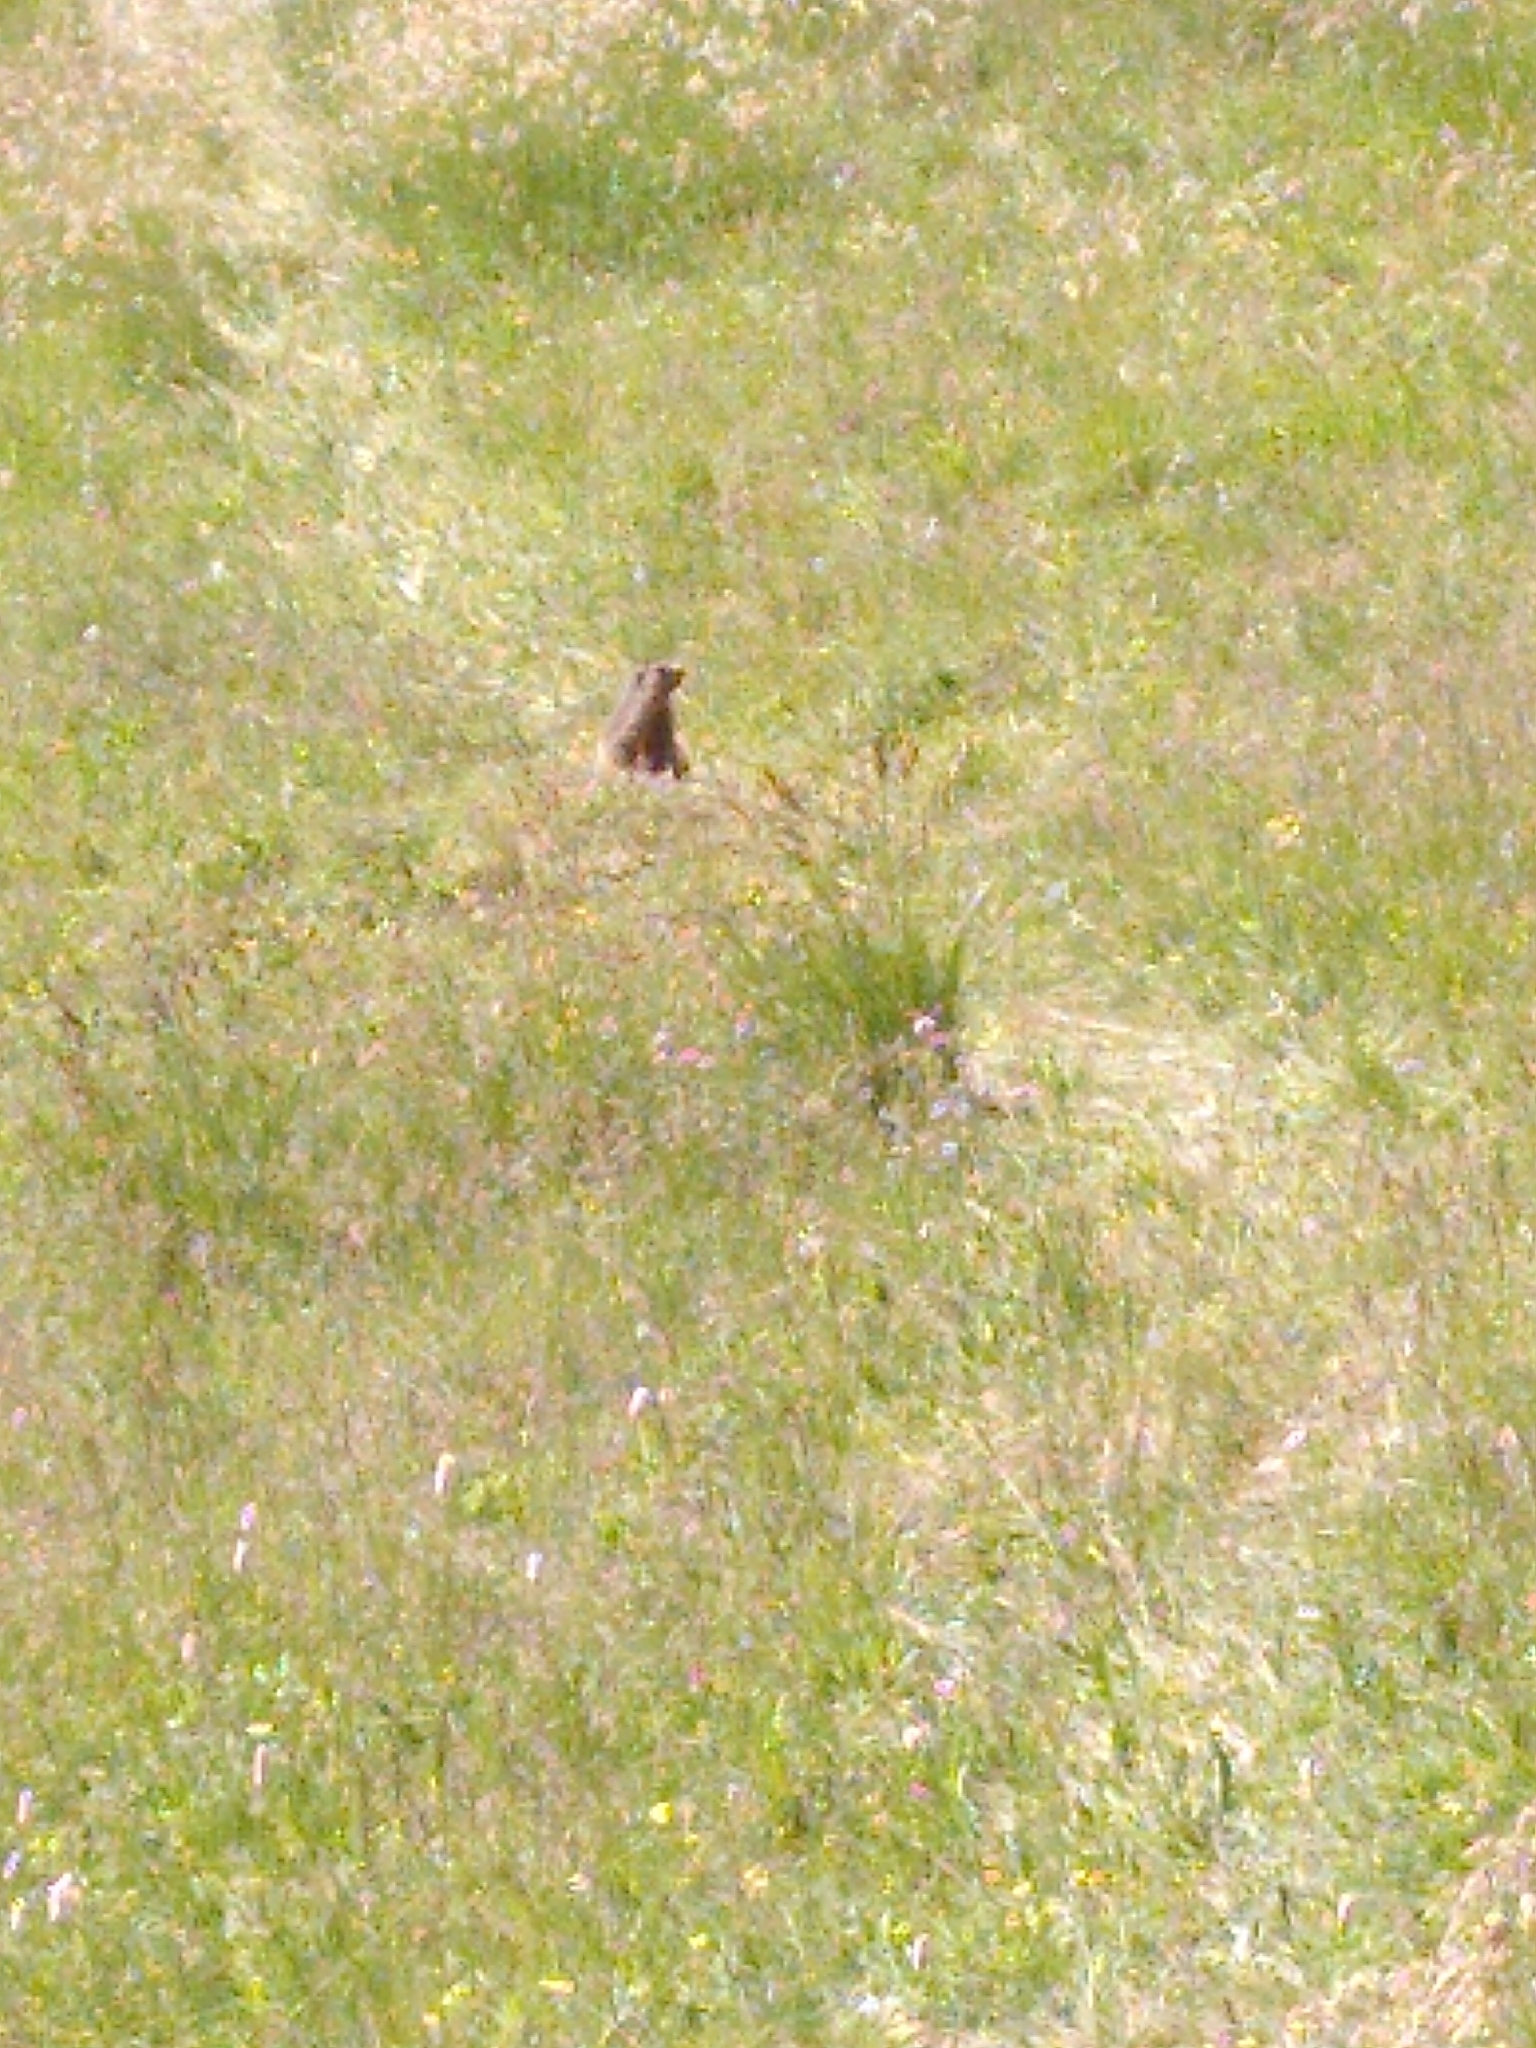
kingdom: Animalia
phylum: Chordata
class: Mammalia
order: Rodentia
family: Sciuridae
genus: Marmota
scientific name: Marmota marmota
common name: Alpine marmot
